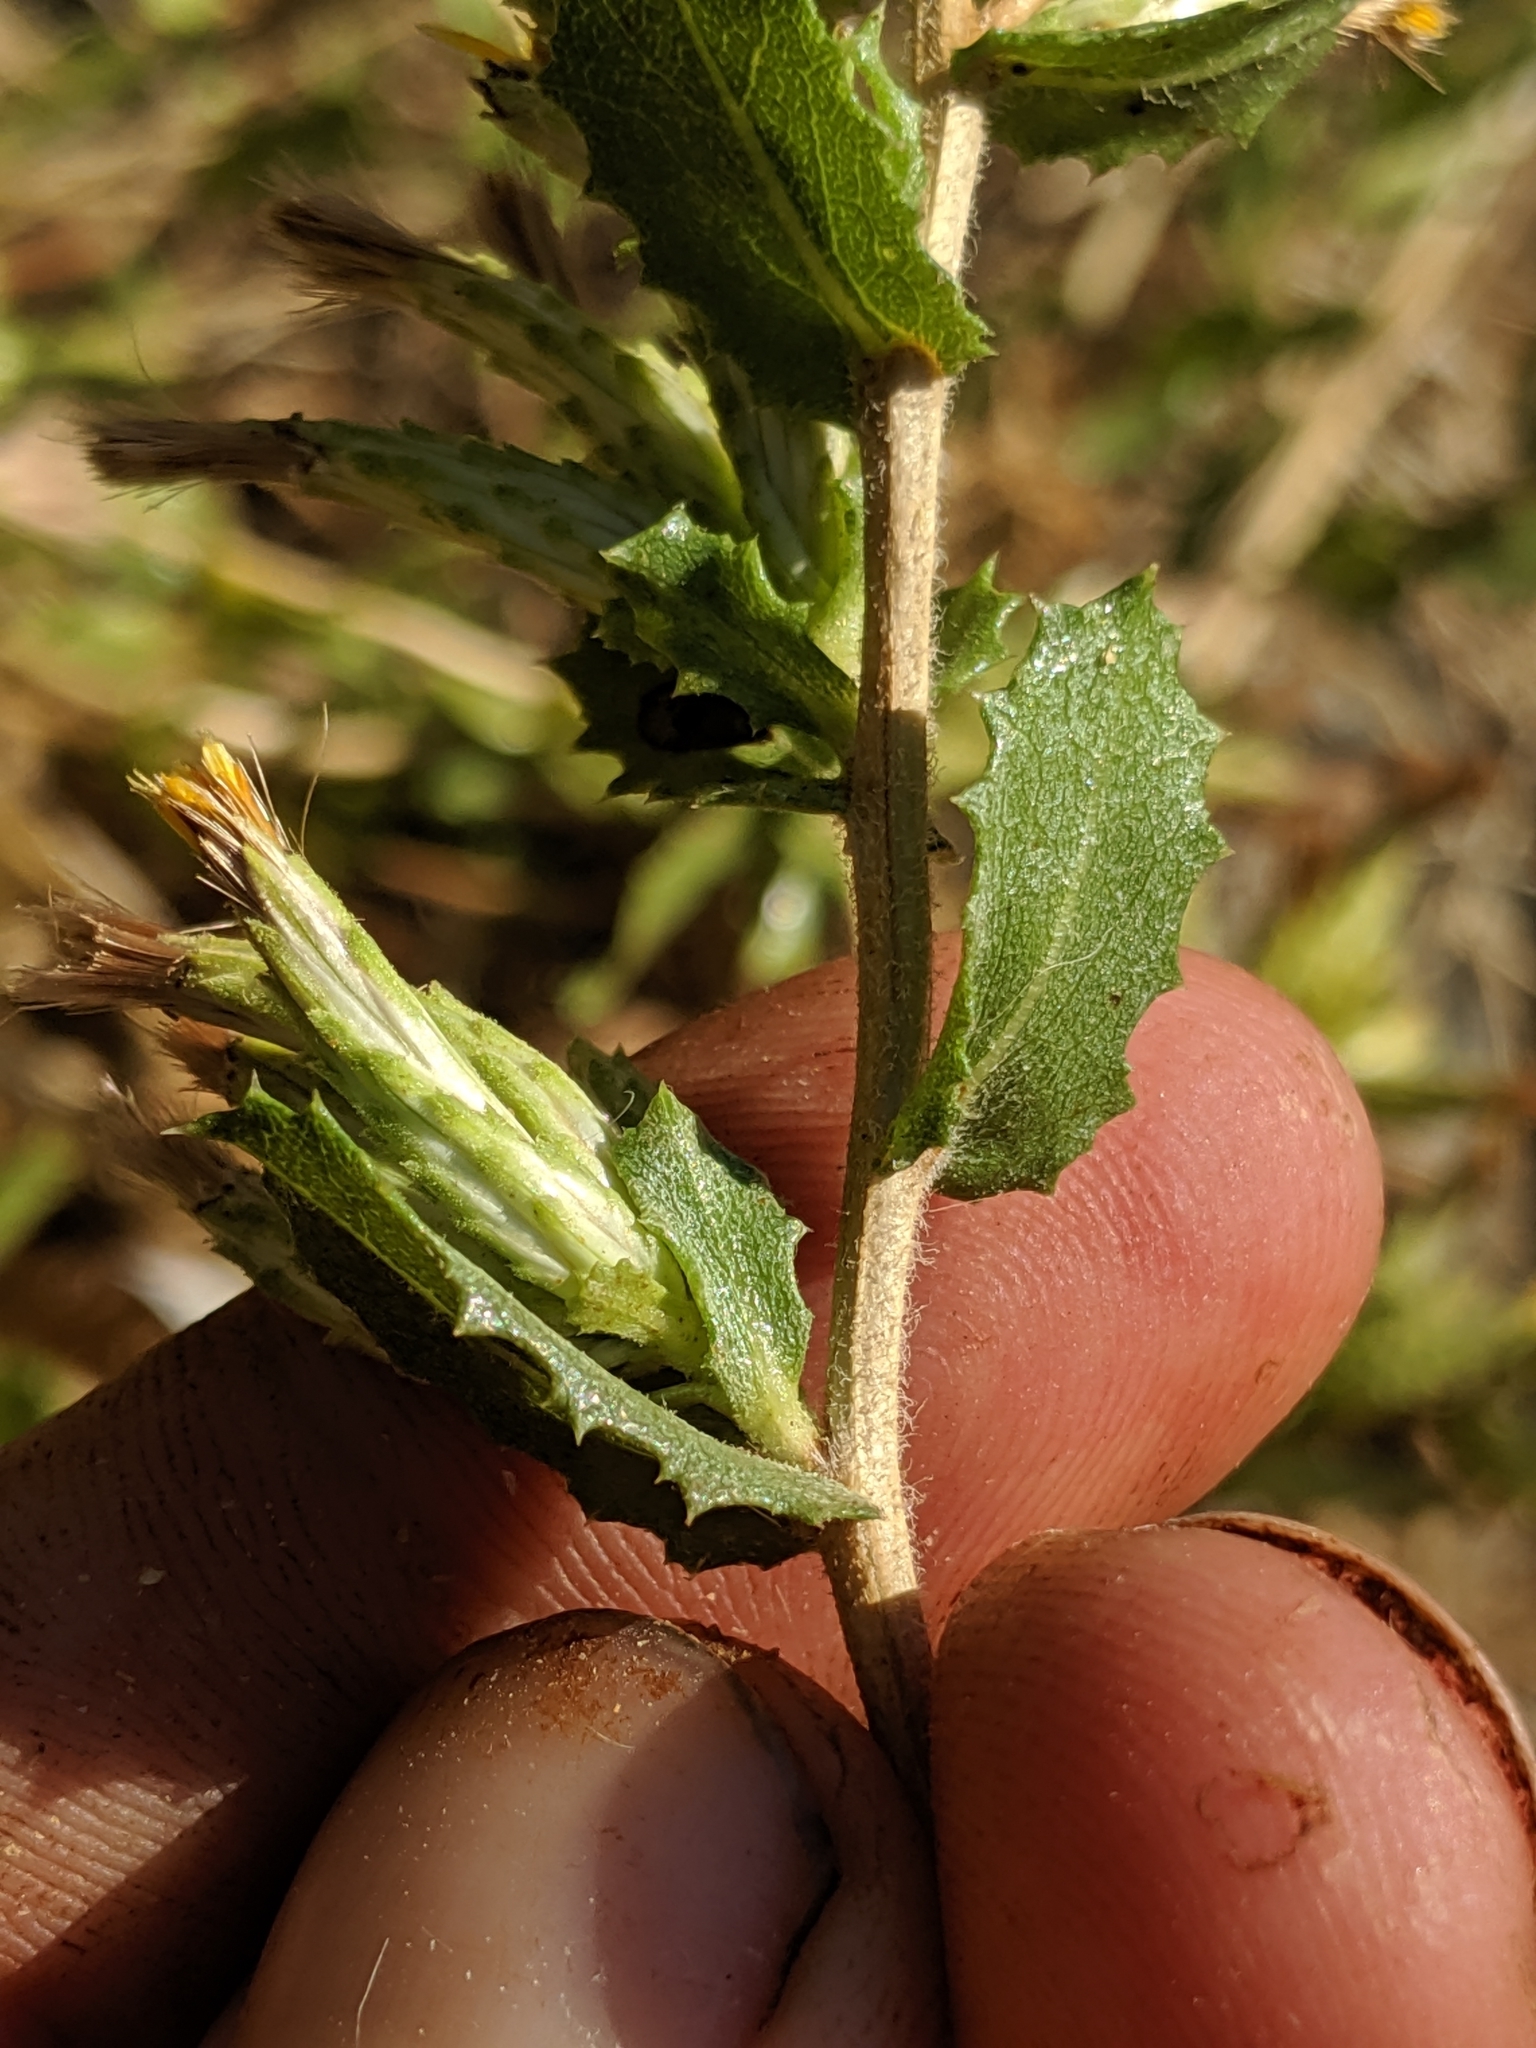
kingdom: Plantae
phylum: Tracheophyta
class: Magnoliopsida
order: Asterales
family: Asteraceae
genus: Hazardia
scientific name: Hazardia stenolepis
